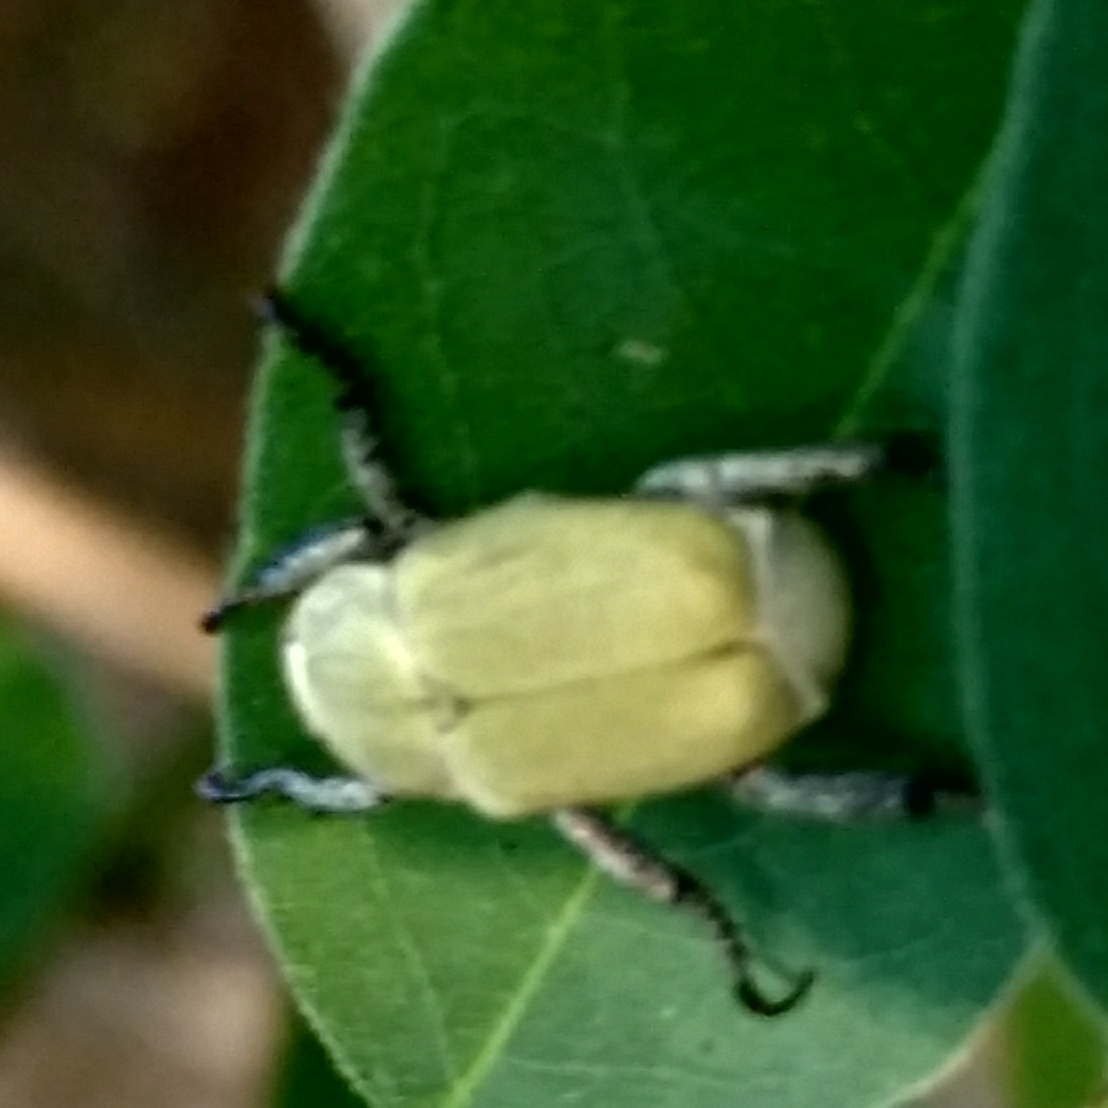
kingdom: Animalia
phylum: Arthropoda
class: Insecta
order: Coleoptera
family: Scarabaeidae
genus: Hoplia
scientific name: Hoplia parvula
